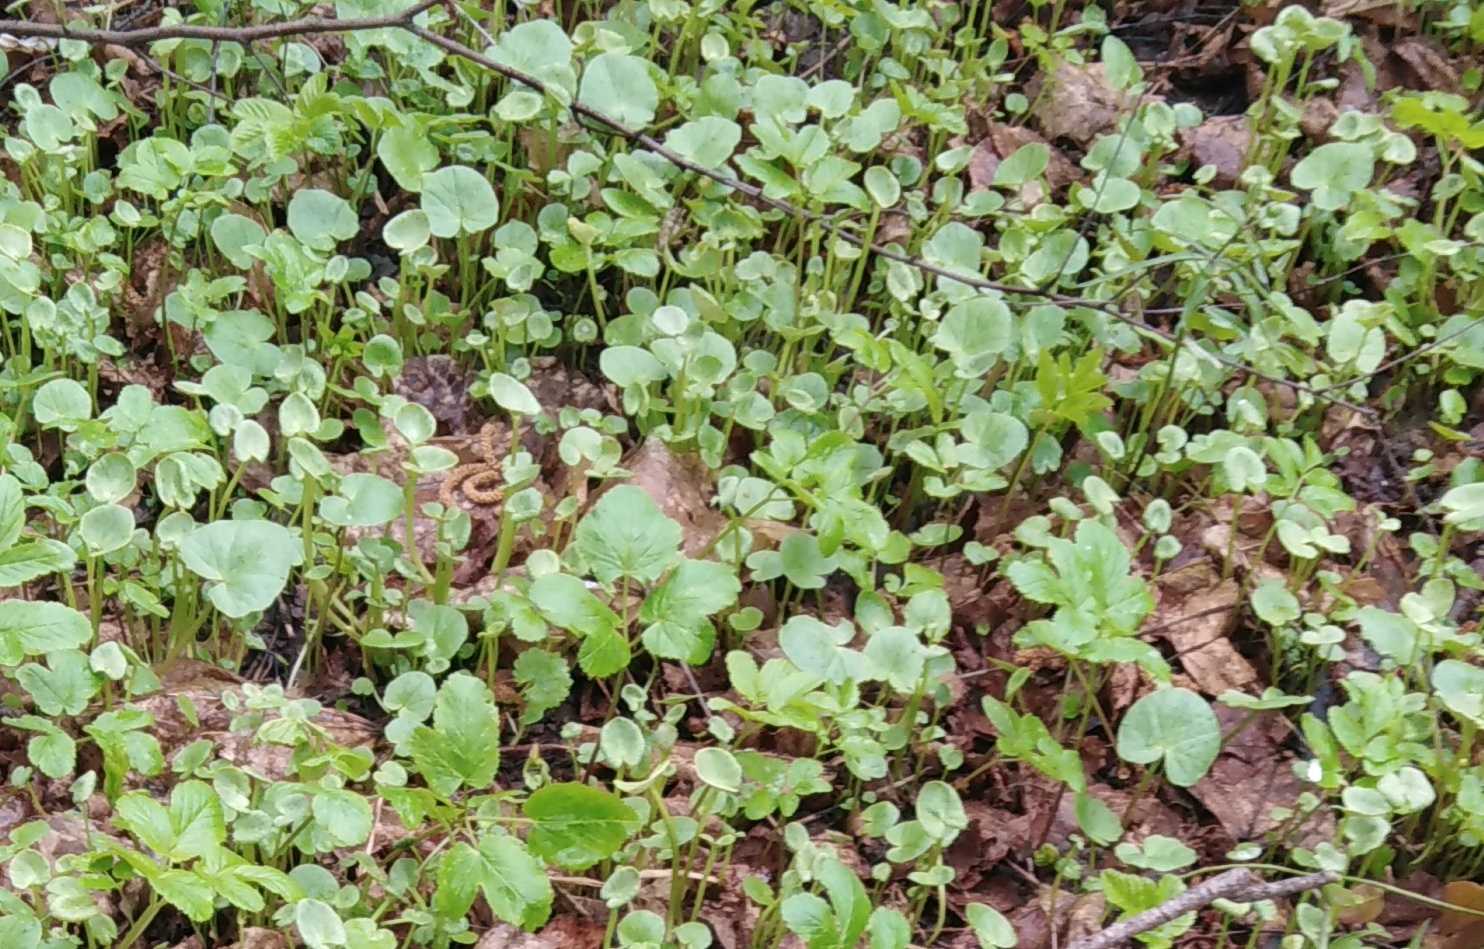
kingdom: Plantae
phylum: Tracheophyta
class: Magnoliopsida
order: Ranunculales
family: Ranunculaceae
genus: Ficaria
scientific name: Ficaria verna
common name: Lesser celandine
